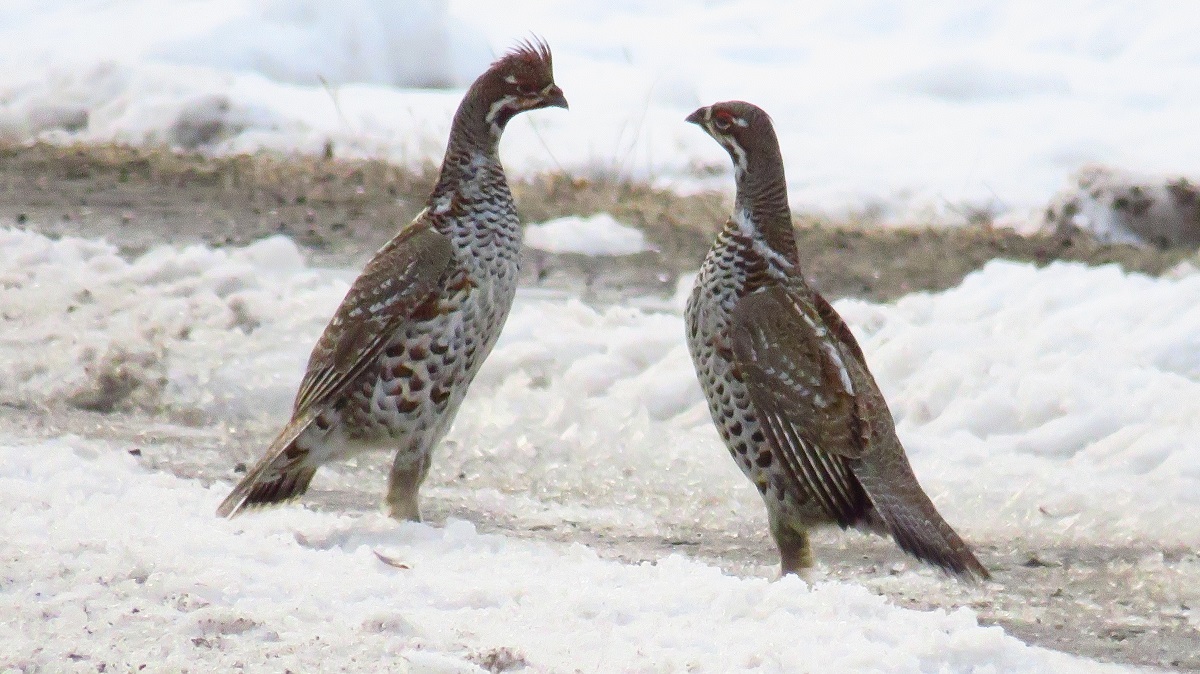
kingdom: Animalia
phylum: Chordata
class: Aves
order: Galliformes
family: Phasianidae
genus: Tetrastes
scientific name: Tetrastes bonasia
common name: Hazel grouse
